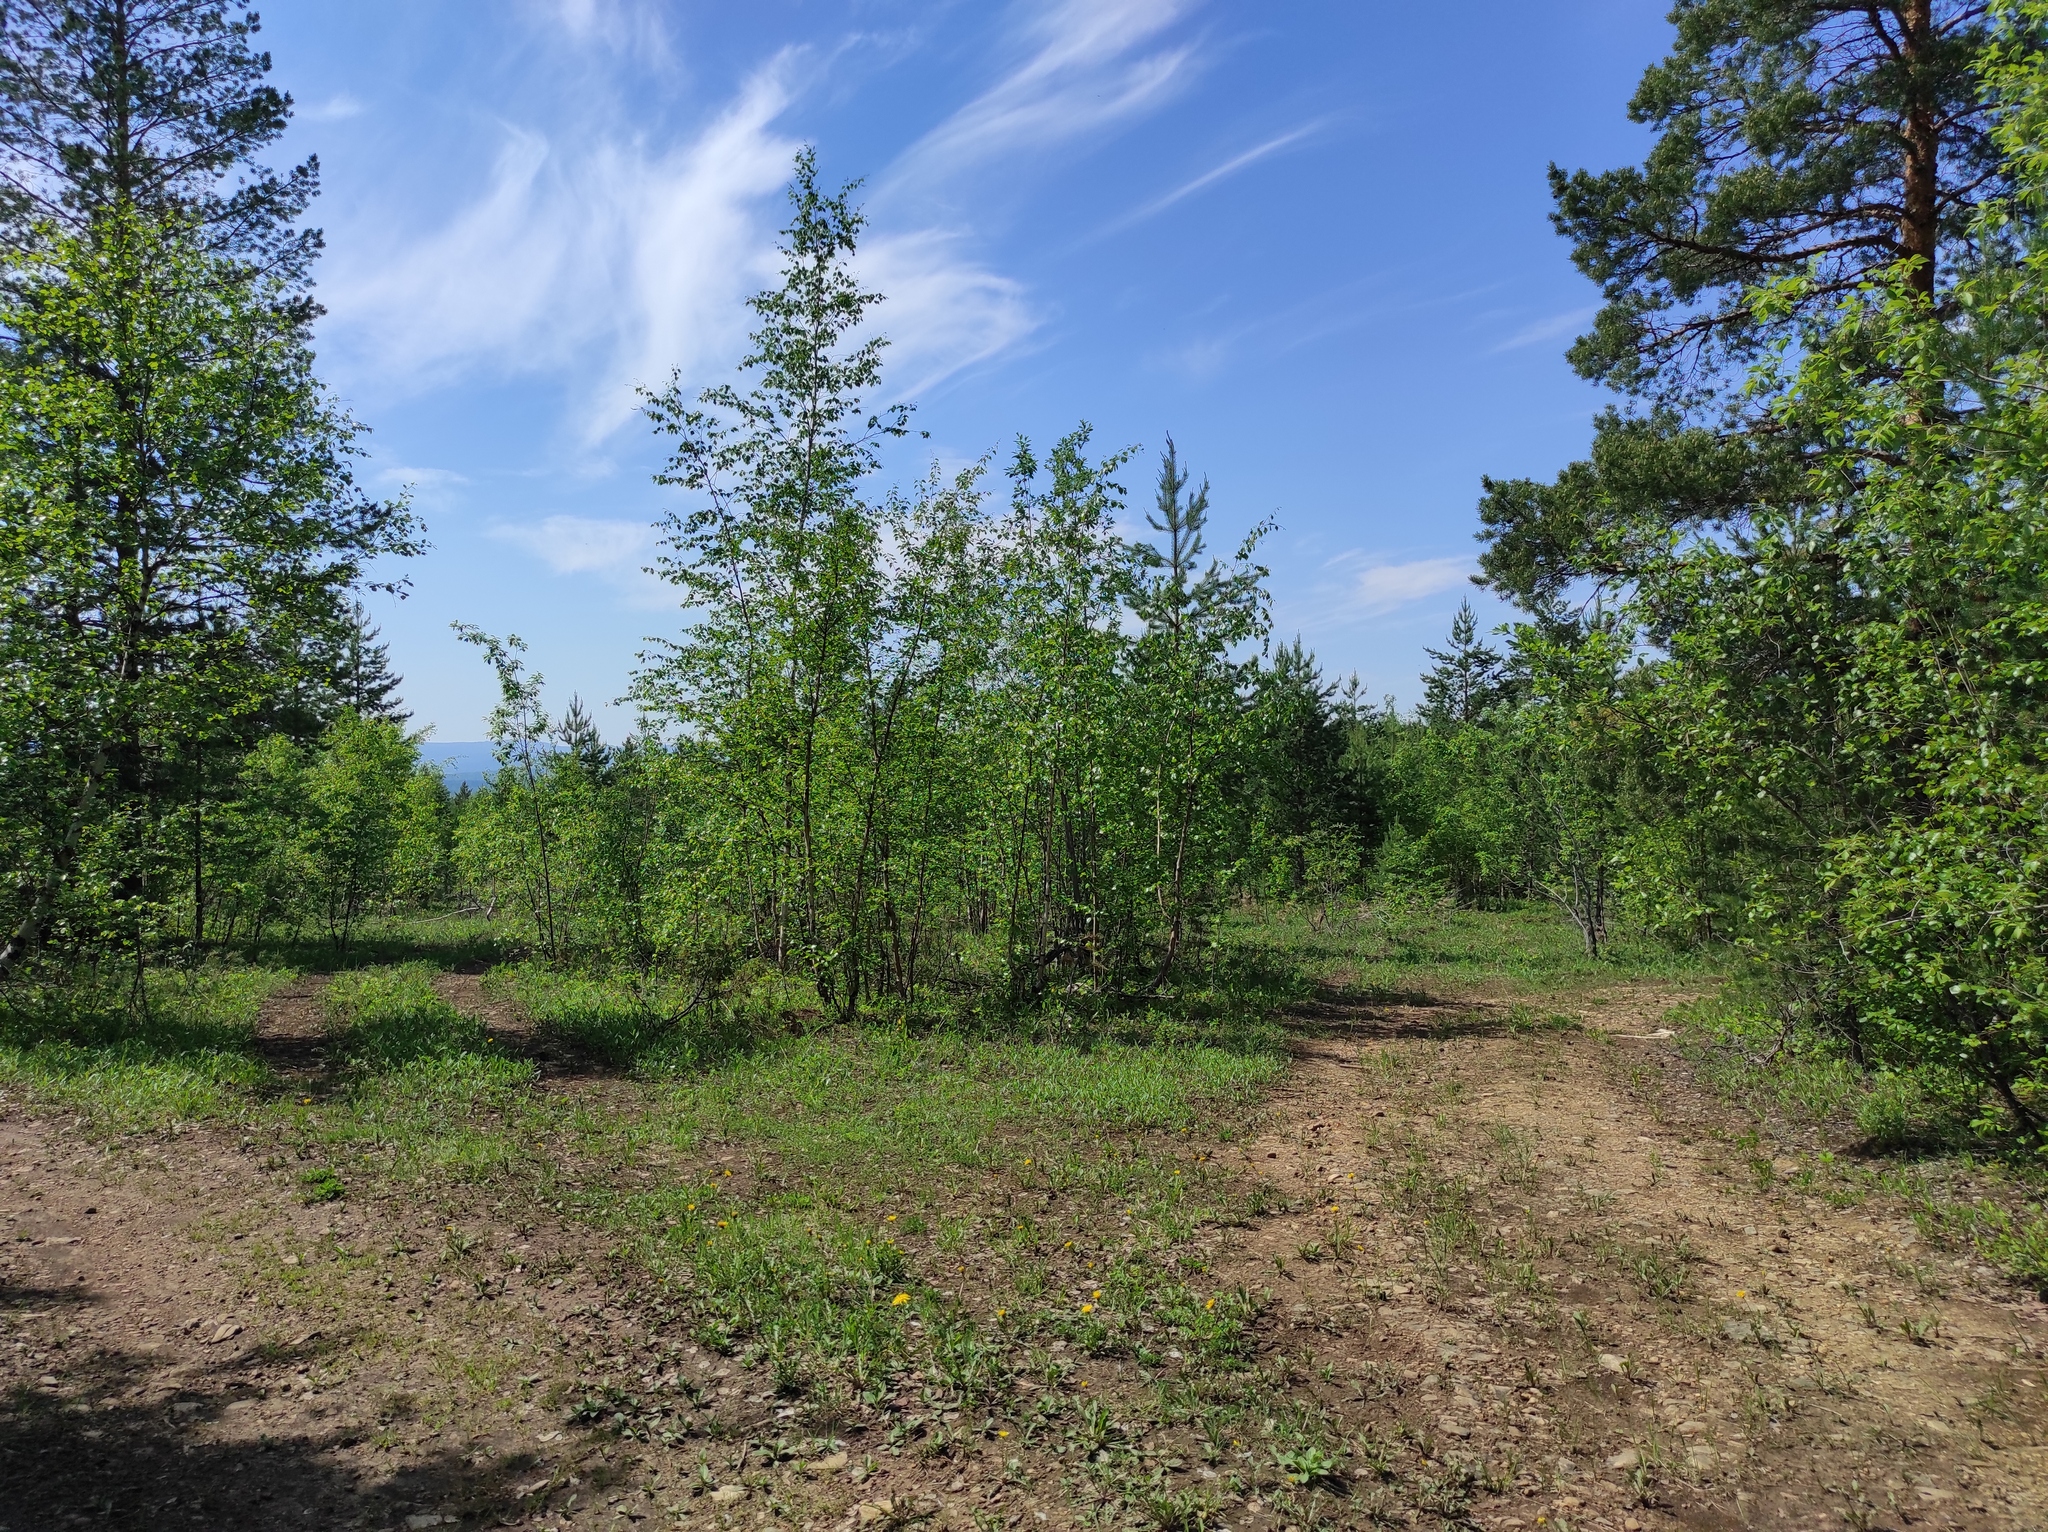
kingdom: Plantae
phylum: Tracheophyta
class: Magnoliopsida
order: Ranunculales
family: Ranunculaceae
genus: Anemone
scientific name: Anemone sylvestris
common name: Snowdrop anemone
